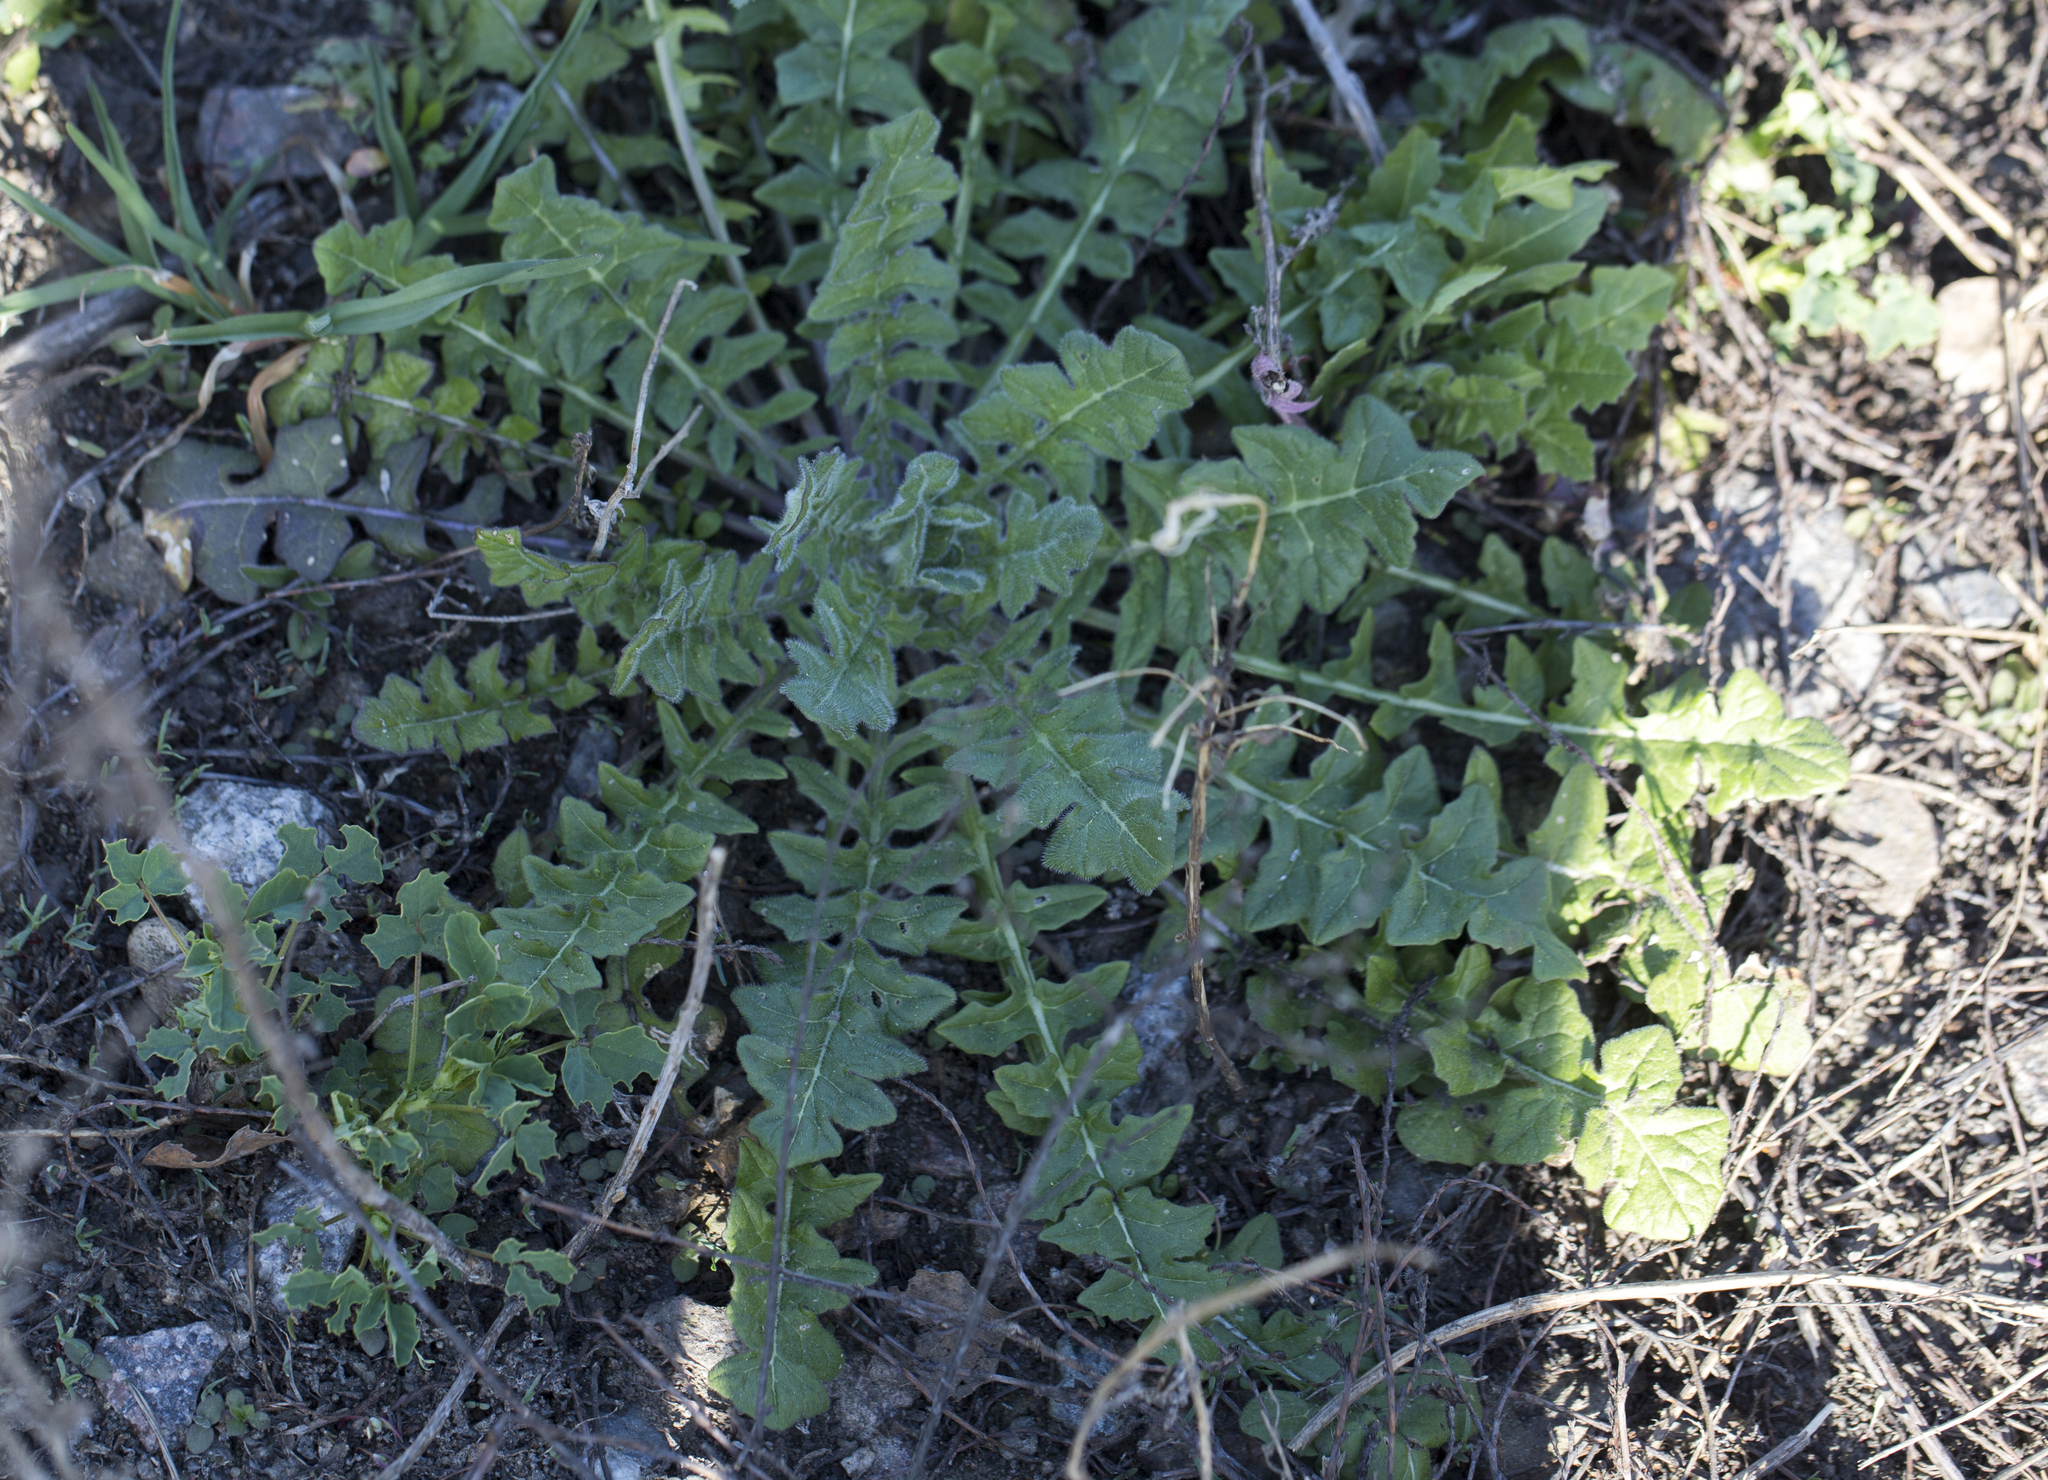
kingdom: Plantae
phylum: Tracheophyta
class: Magnoliopsida
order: Brassicales
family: Brassicaceae
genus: Sisymbrium
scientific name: Sisymbrium loeselii
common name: False london-rocket
